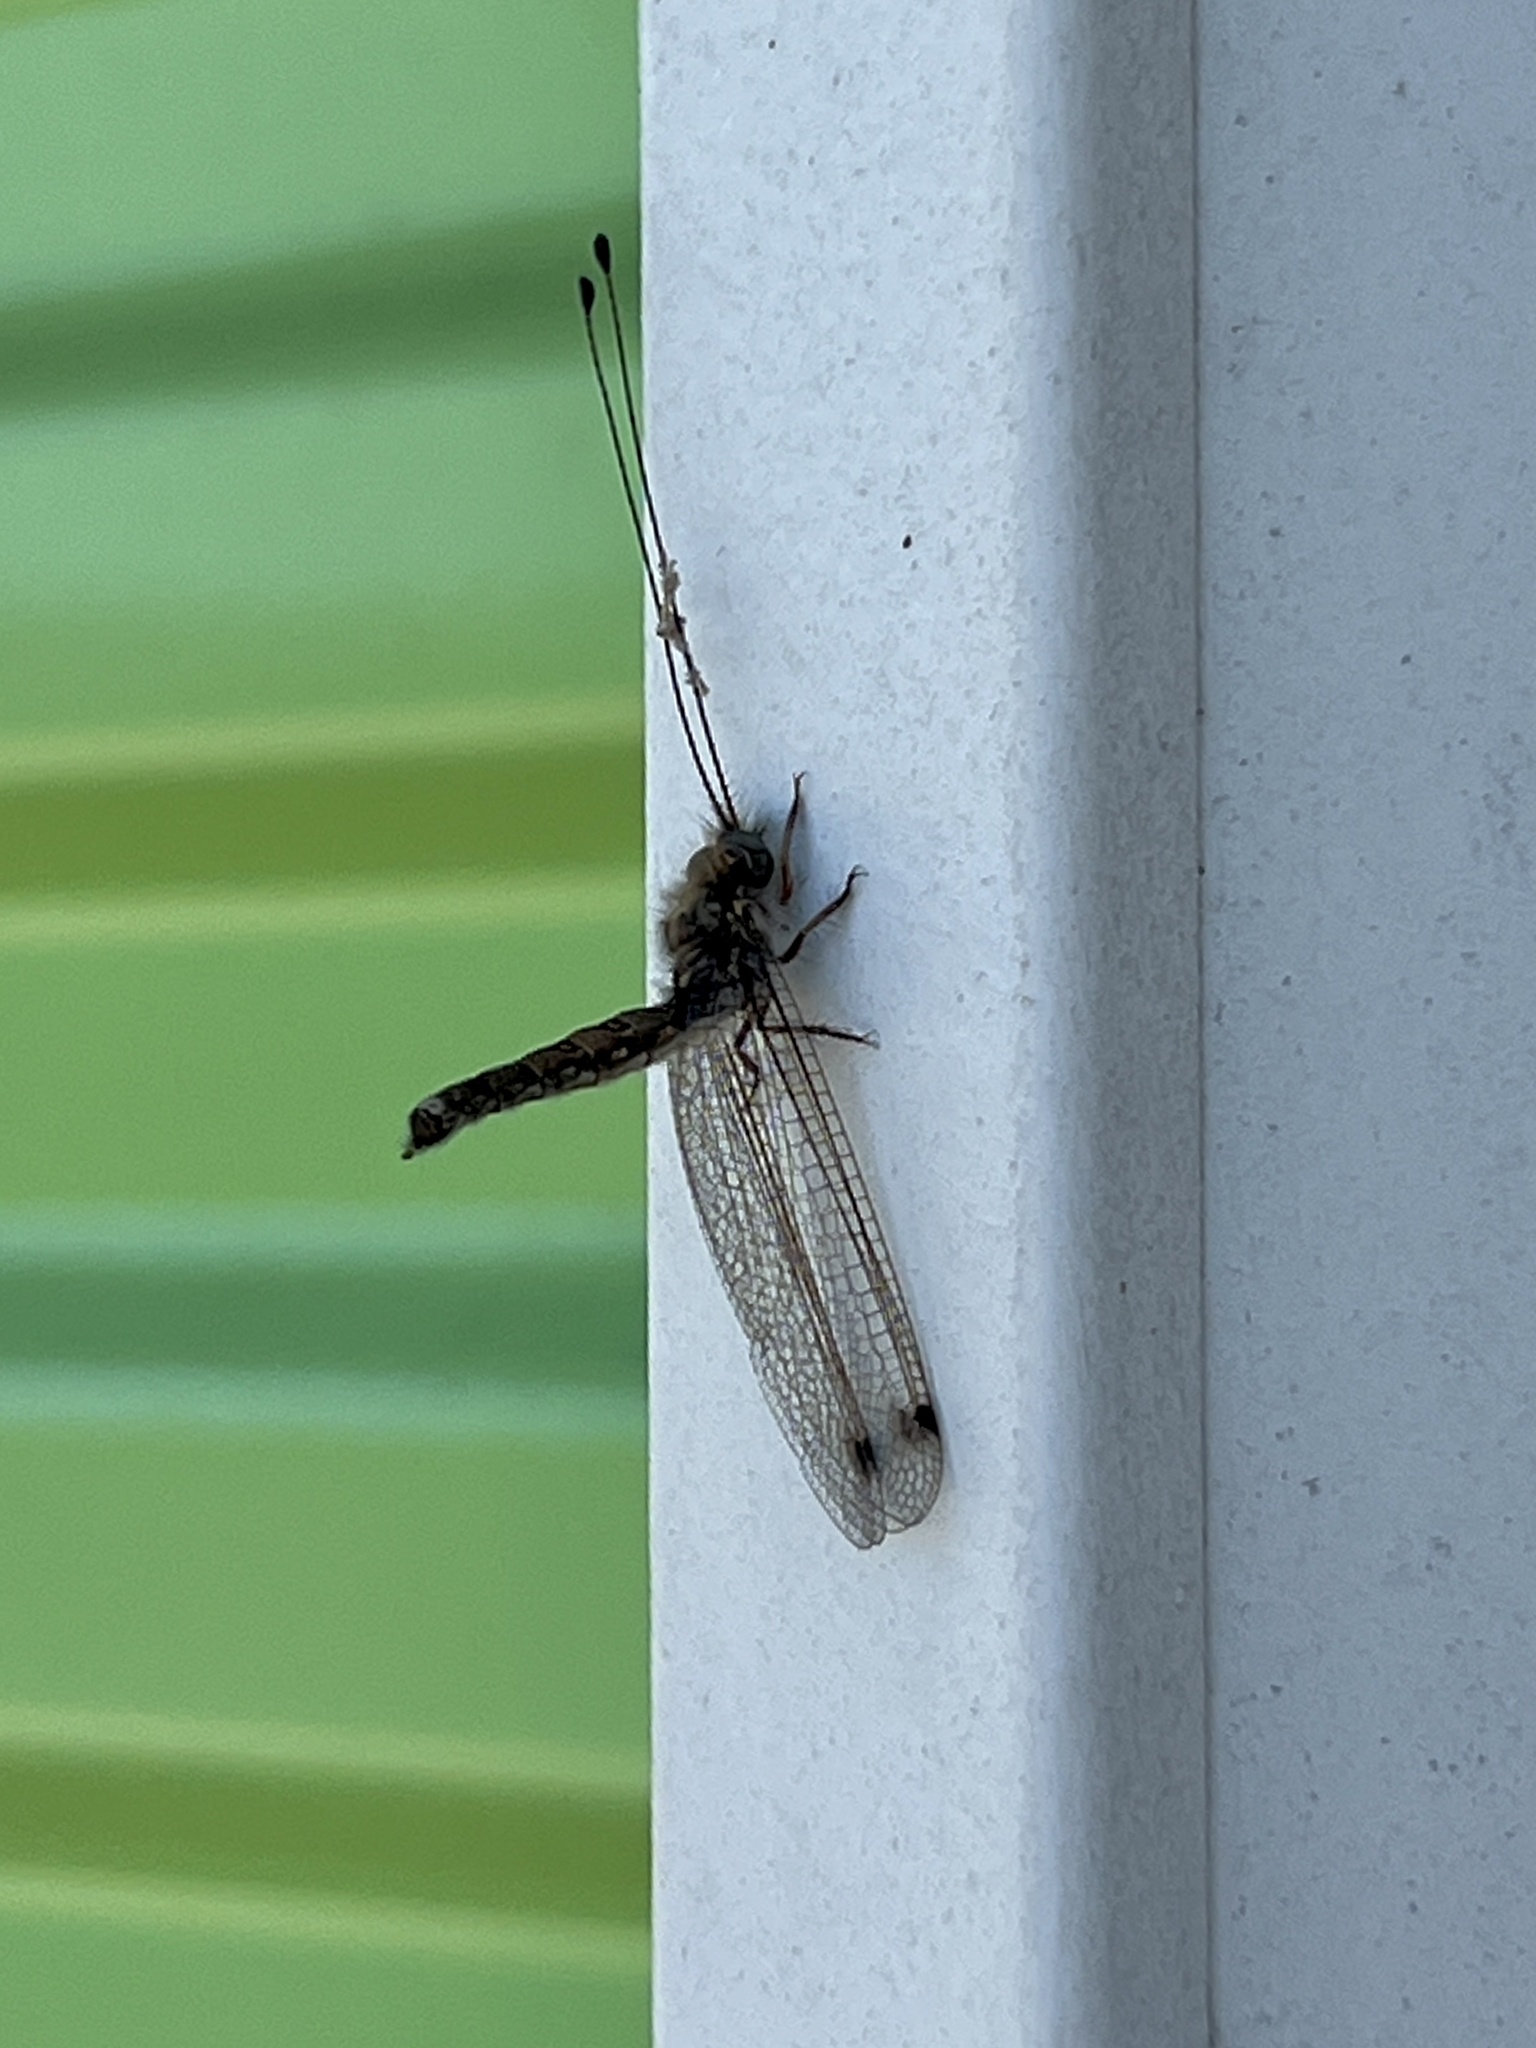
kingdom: Animalia
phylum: Arthropoda
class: Insecta
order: Neuroptera
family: Ascalaphidae
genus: Ululodes
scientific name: Ululodes macleayanus
